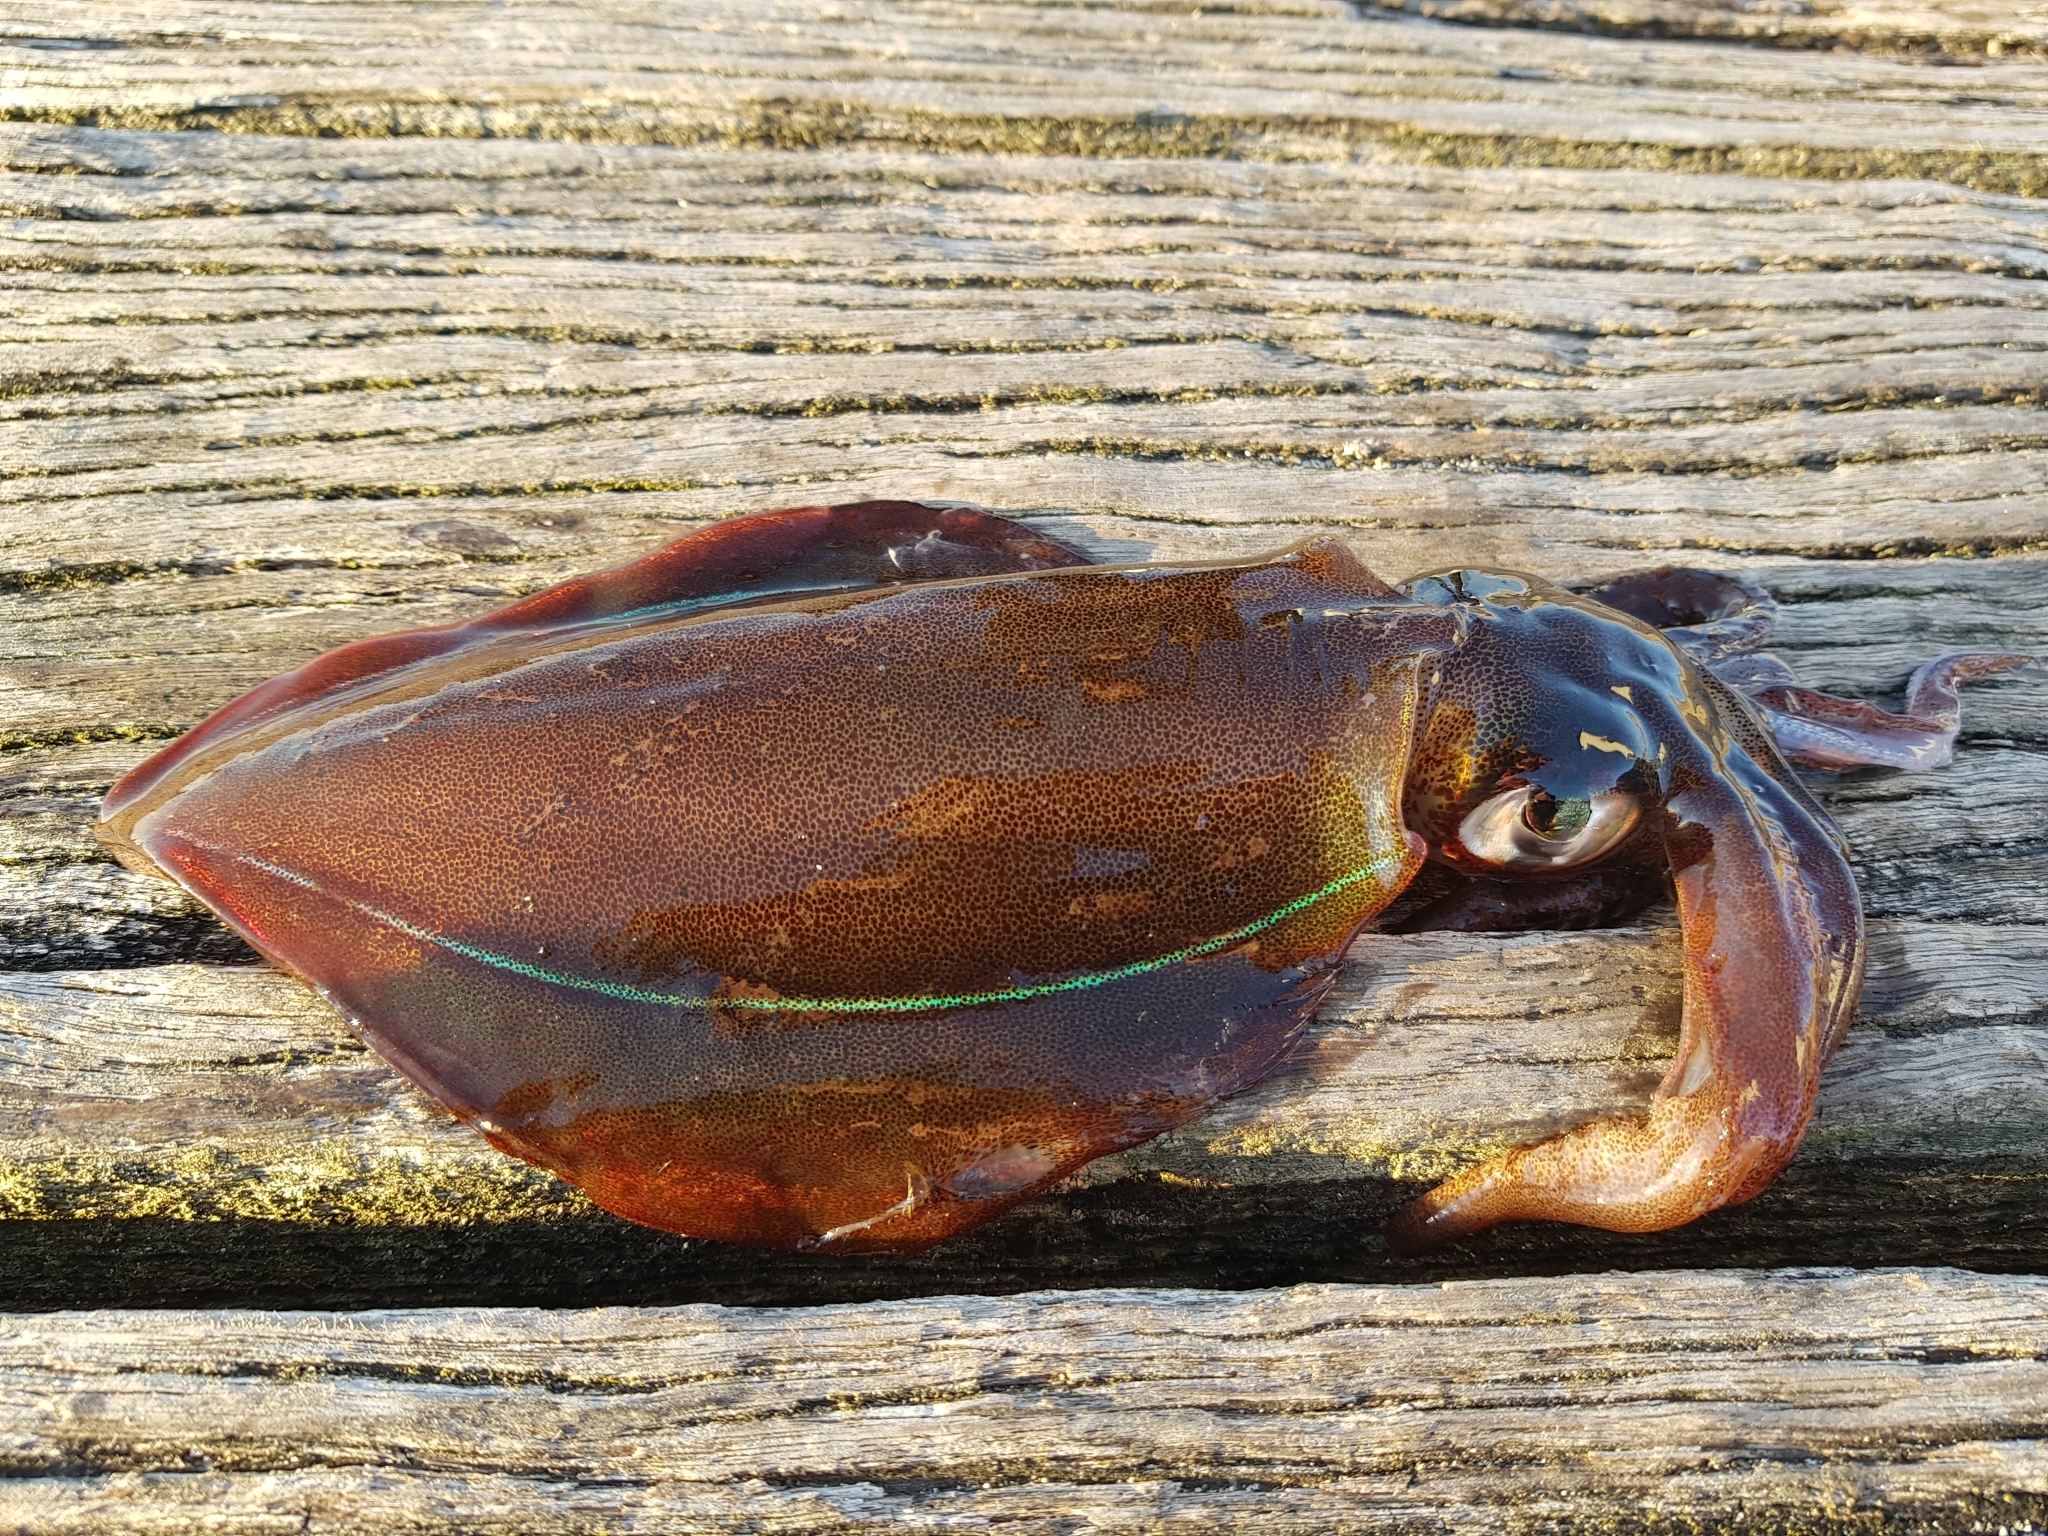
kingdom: Animalia
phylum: Mollusca
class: Cephalopoda
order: Myopsida
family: Loliginidae
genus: Sepioteuthis
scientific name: Sepioteuthis australis
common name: Southern reef squid
